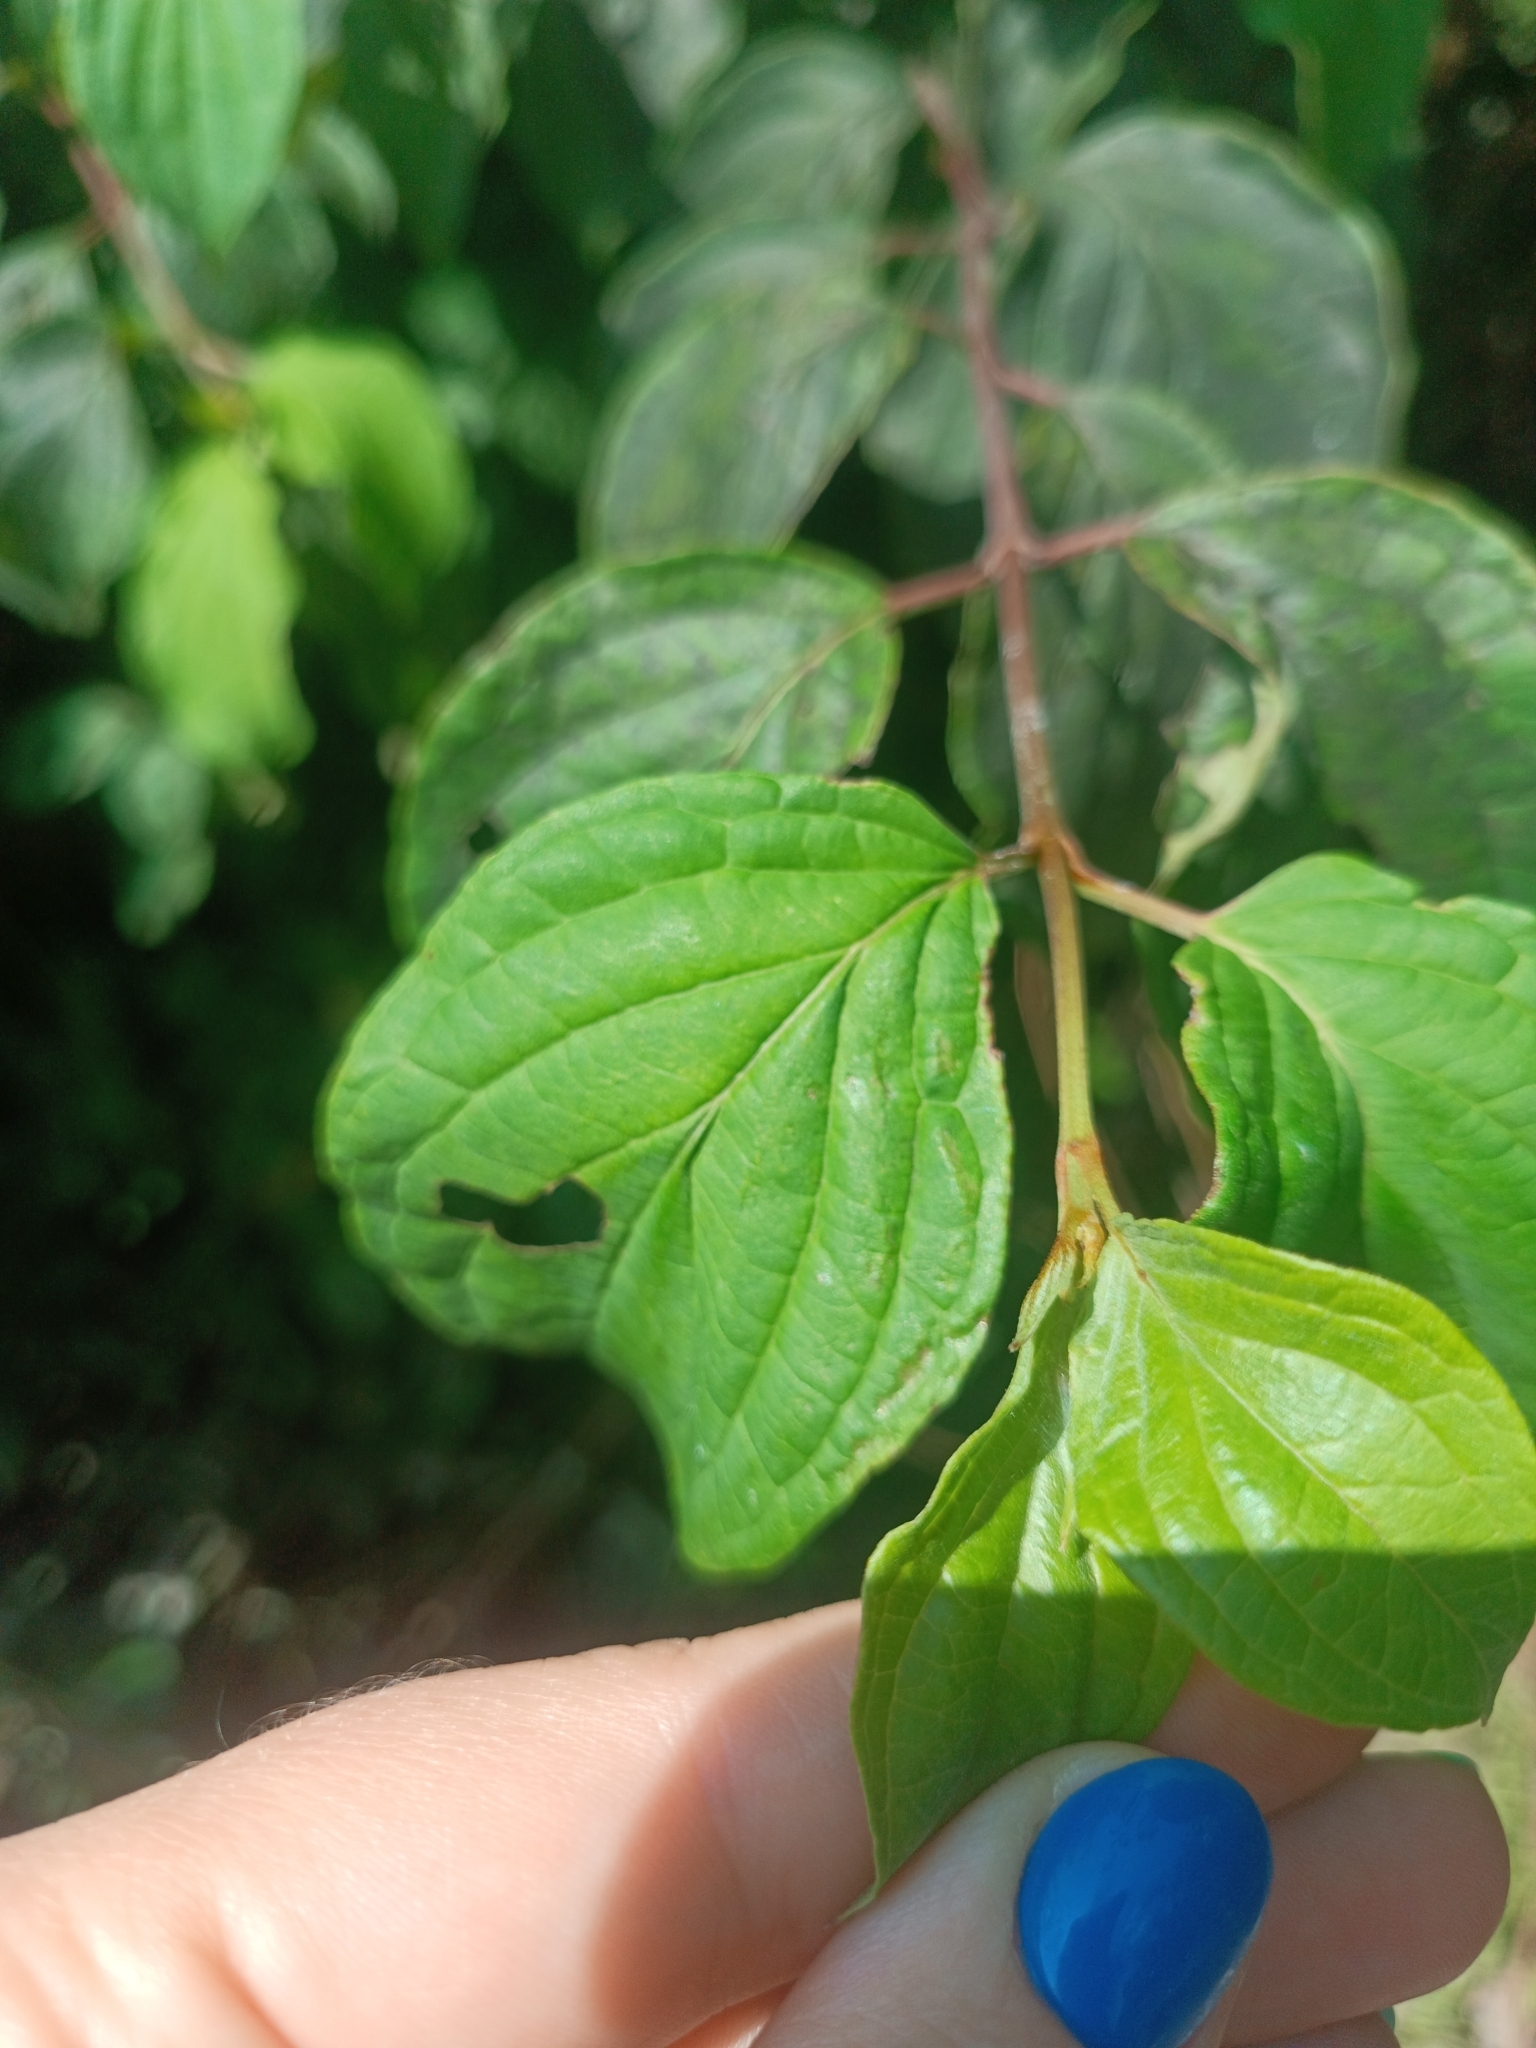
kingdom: Plantae
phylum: Tracheophyta
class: Magnoliopsida
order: Cornales
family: Cornaceae
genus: Cornus
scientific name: Cornus sanguinea
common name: Dogwood
